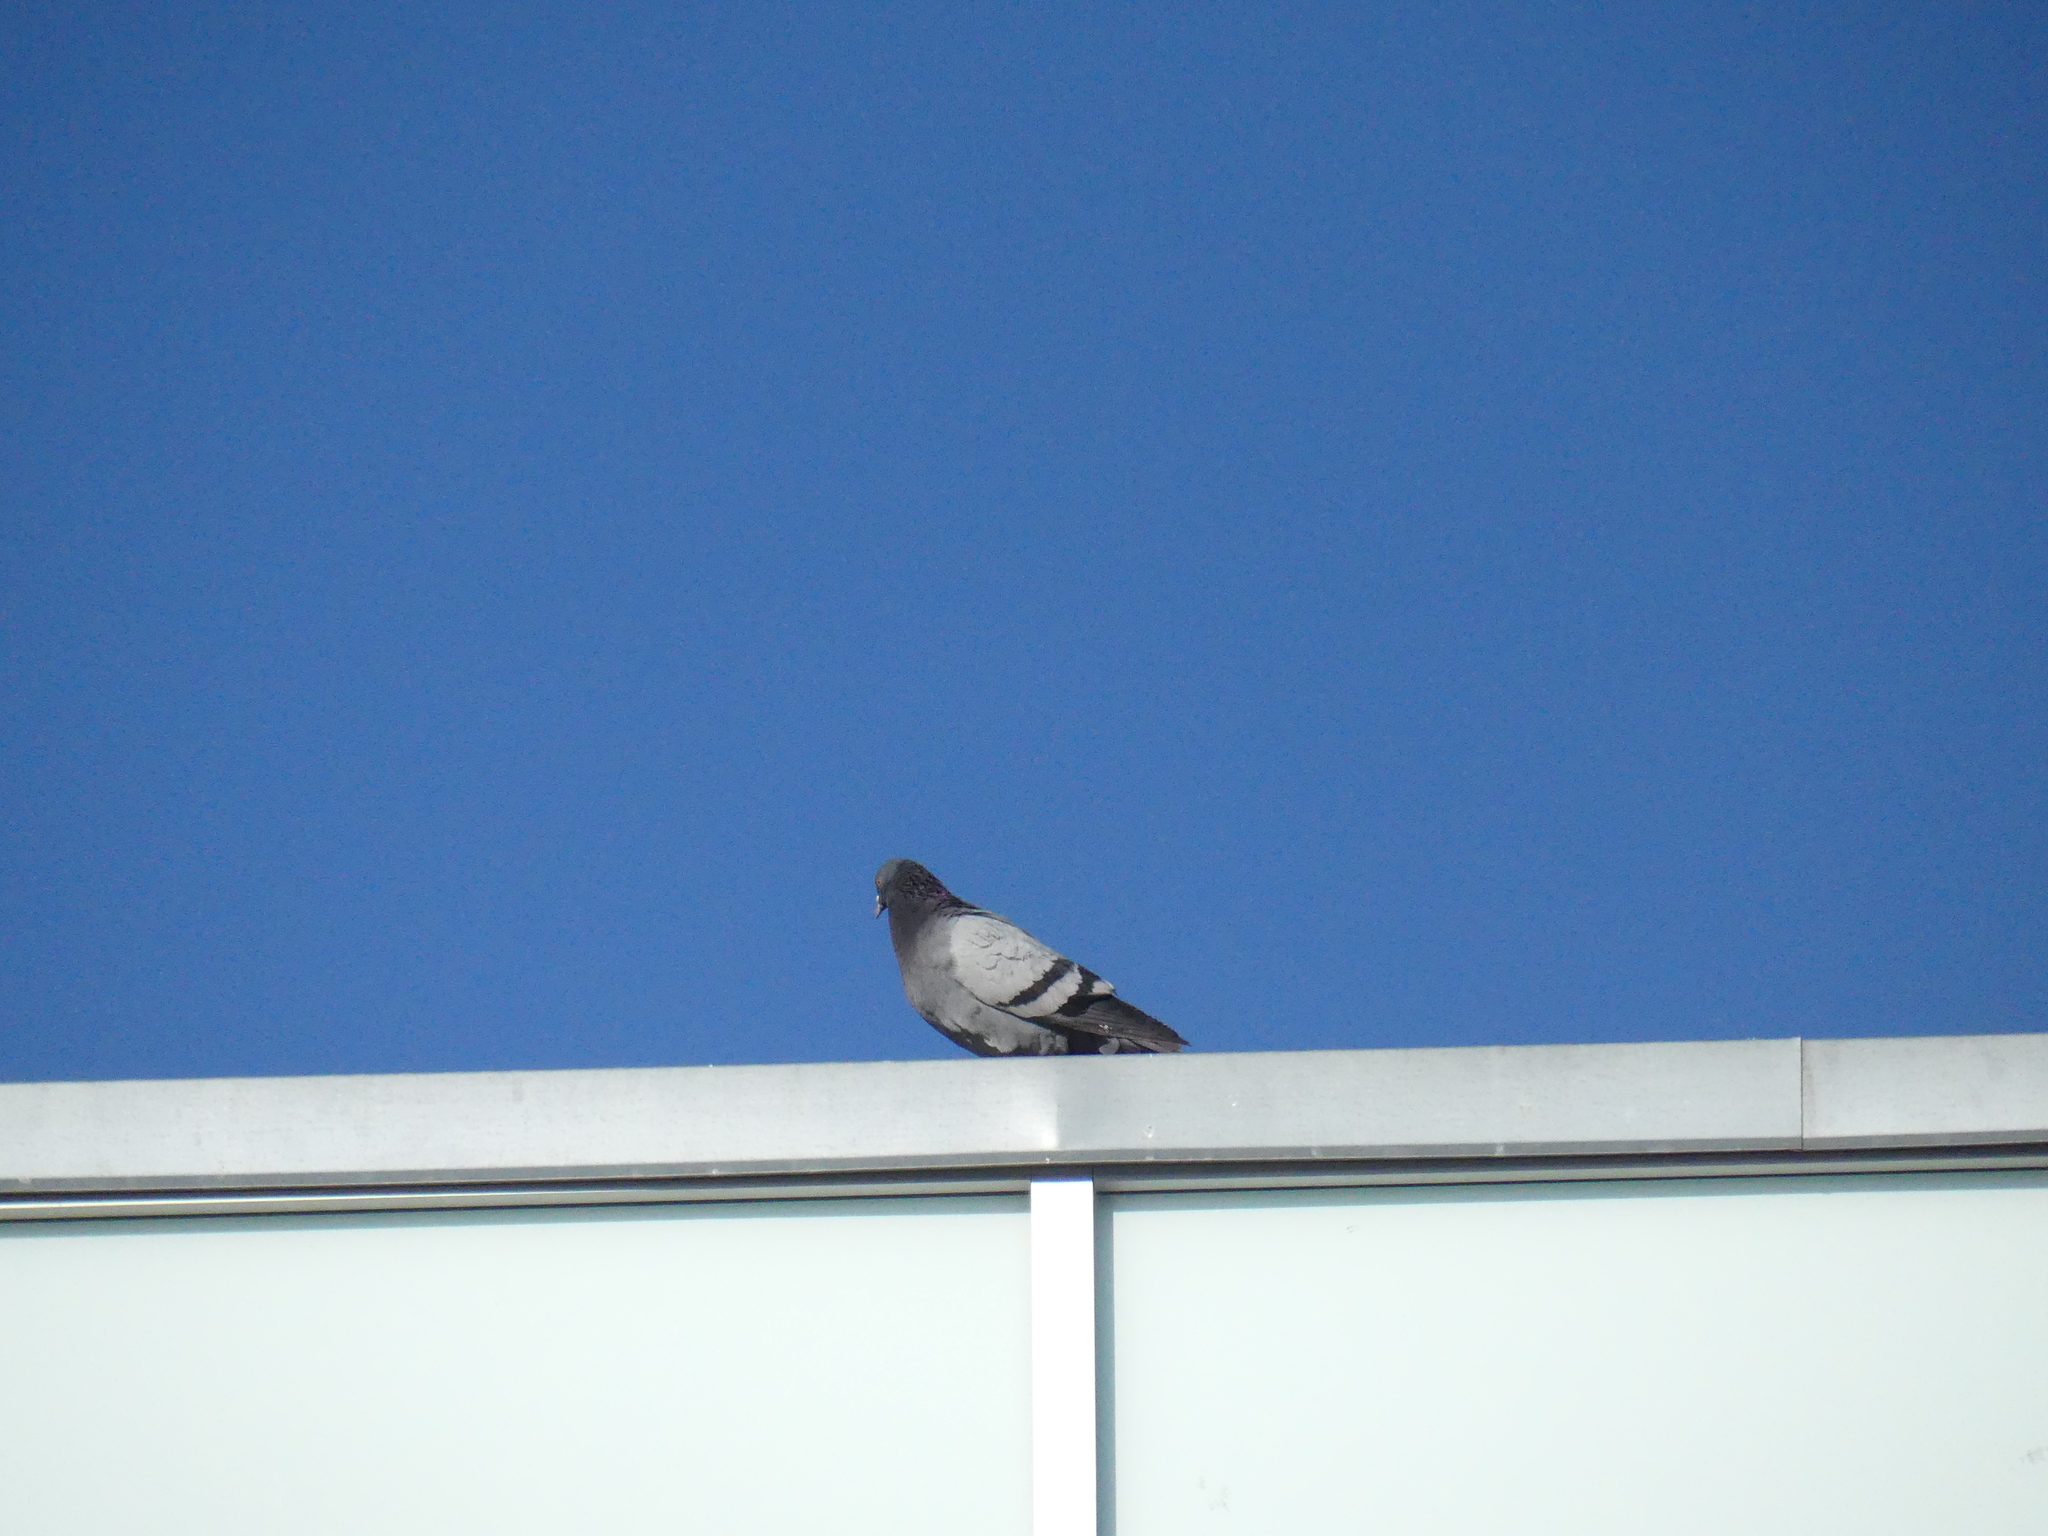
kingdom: Animalia
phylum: Chordata
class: Aves
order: Columbiformes
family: Columbidae
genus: Columba
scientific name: Columba livia
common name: Rock pigeon
